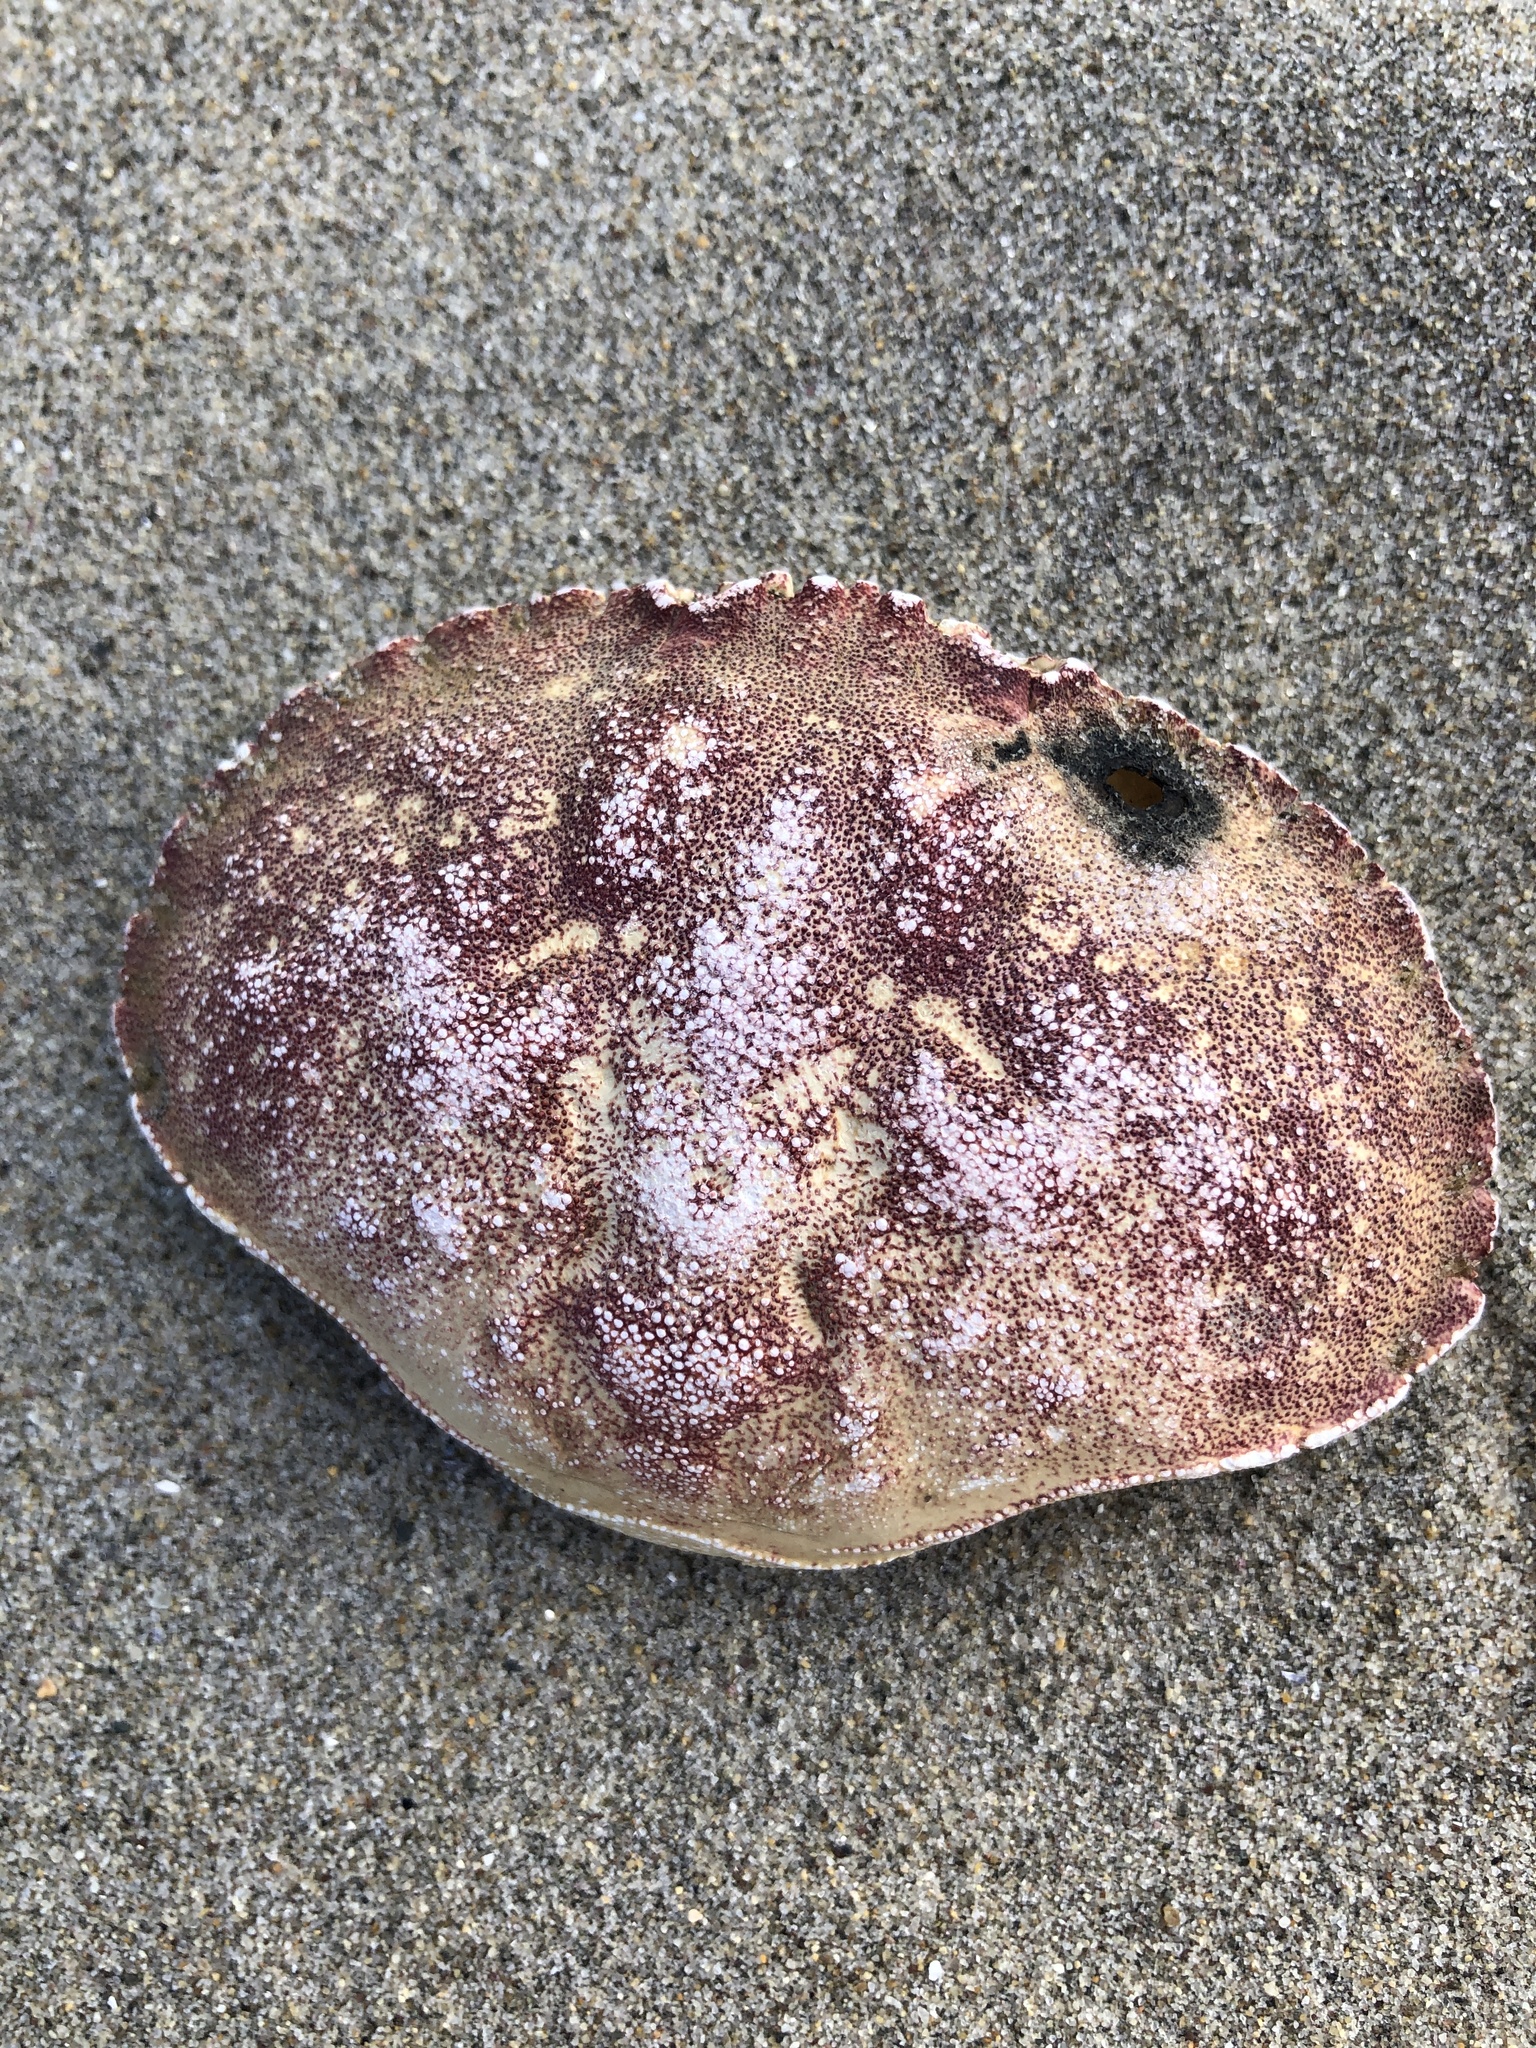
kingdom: Animalia
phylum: Arthropoda
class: Malacostraca
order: Decapoda
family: Cancridae
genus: Cancer
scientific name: Cancer borealis
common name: Jonah crab
